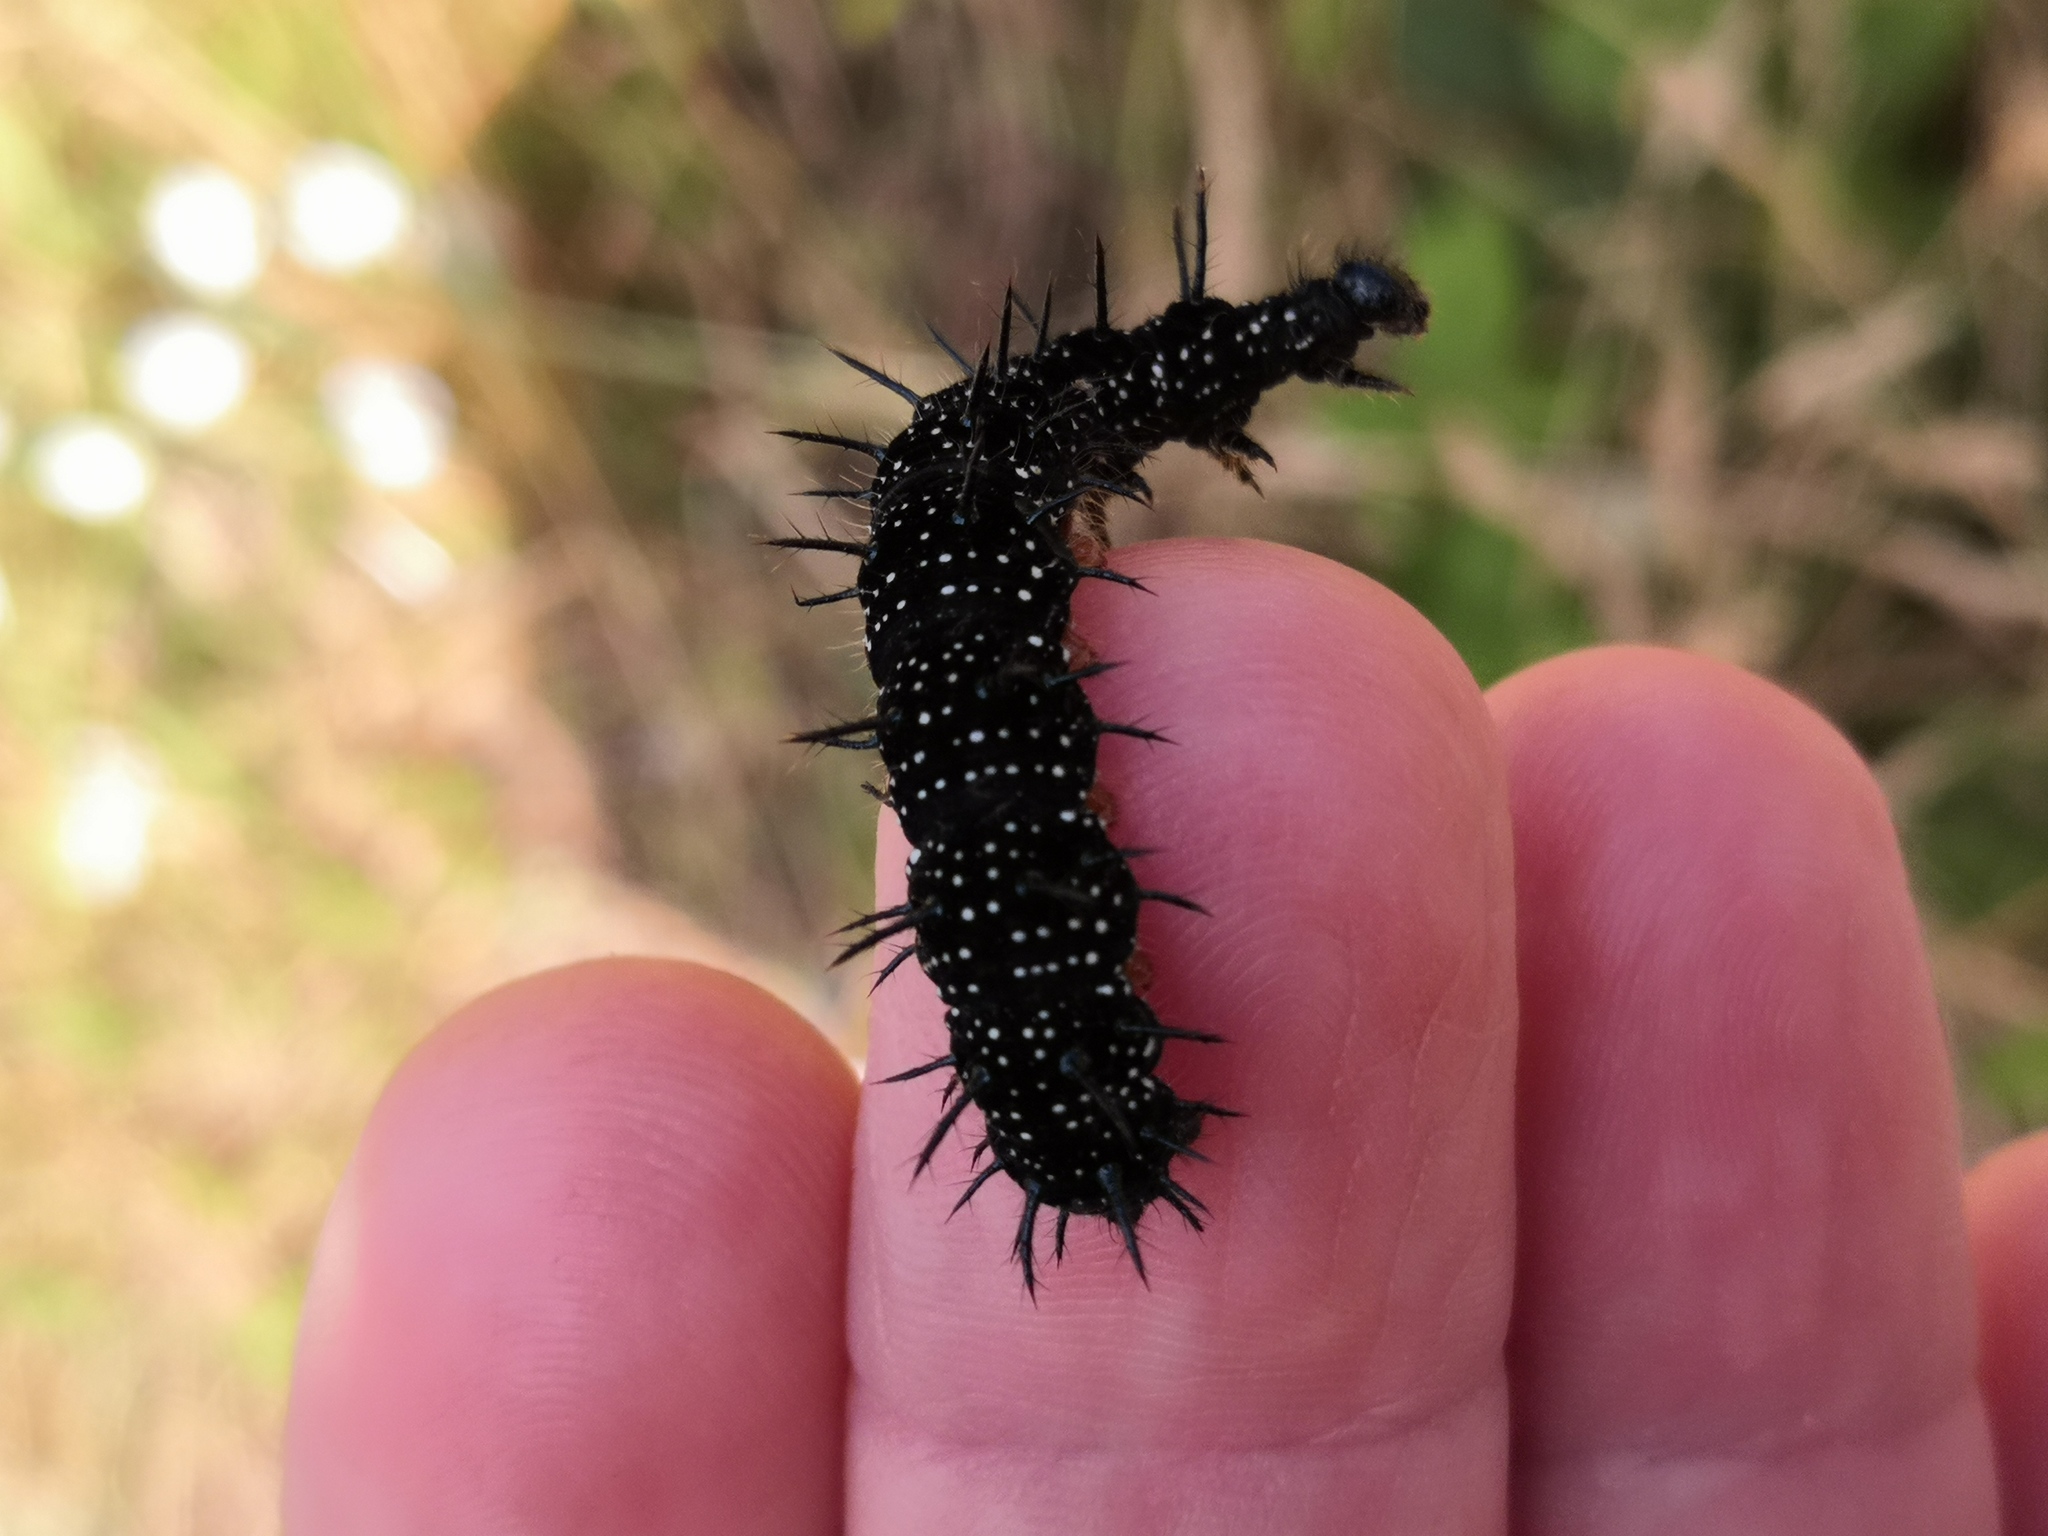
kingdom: Animalia
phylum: Arthropoda
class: Insecta
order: Lepidoptera
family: Nymphalidae
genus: Aglais
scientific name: Aglais io
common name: Peacock
